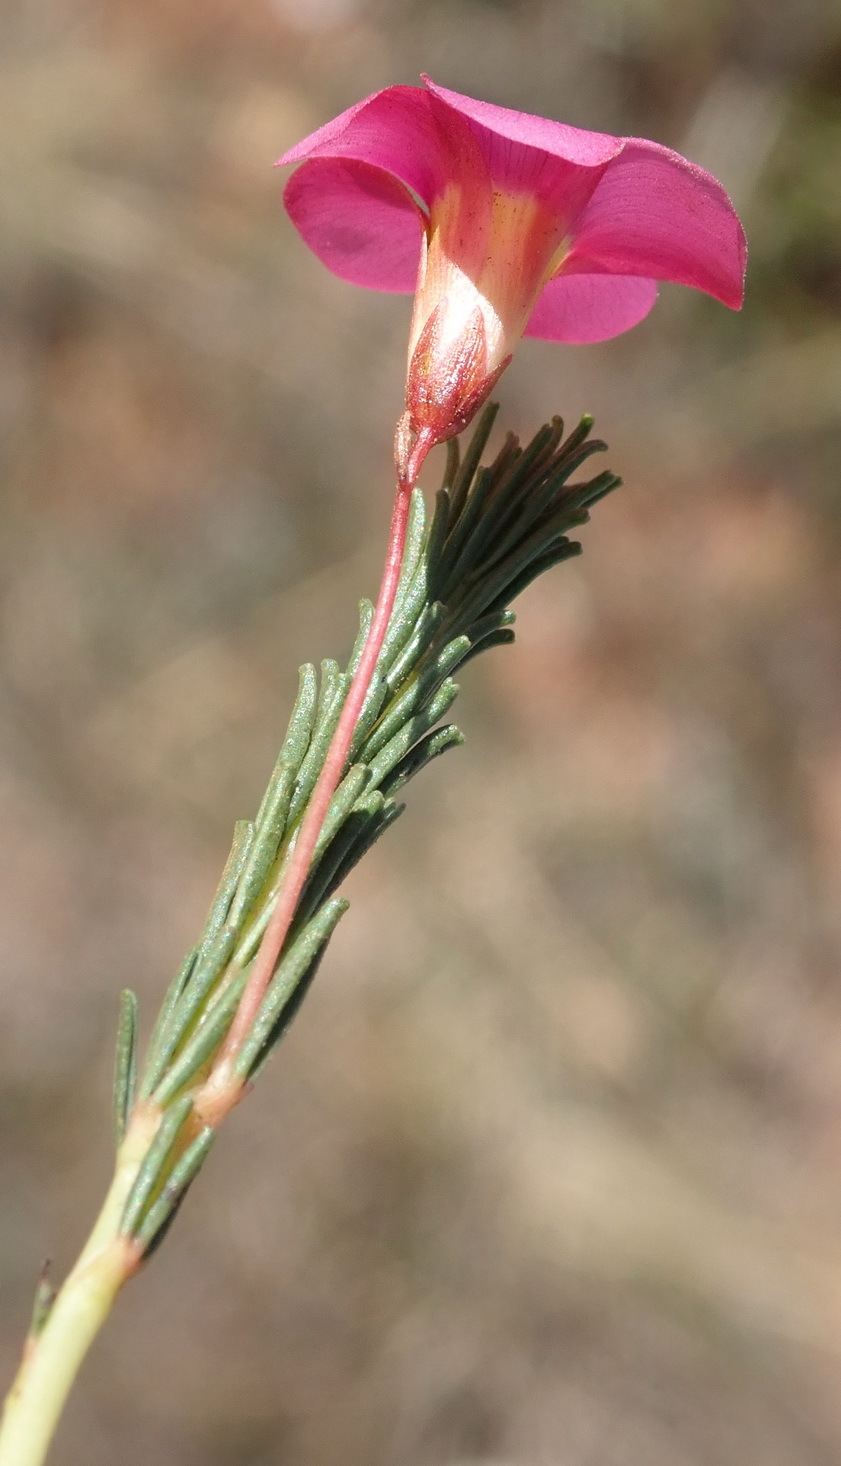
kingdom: Plantae
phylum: Tracheophyta
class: Magnoliopsida
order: Oxalidales
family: Oxalidaceae
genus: Oxalis
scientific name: Oxalis confertifolia
